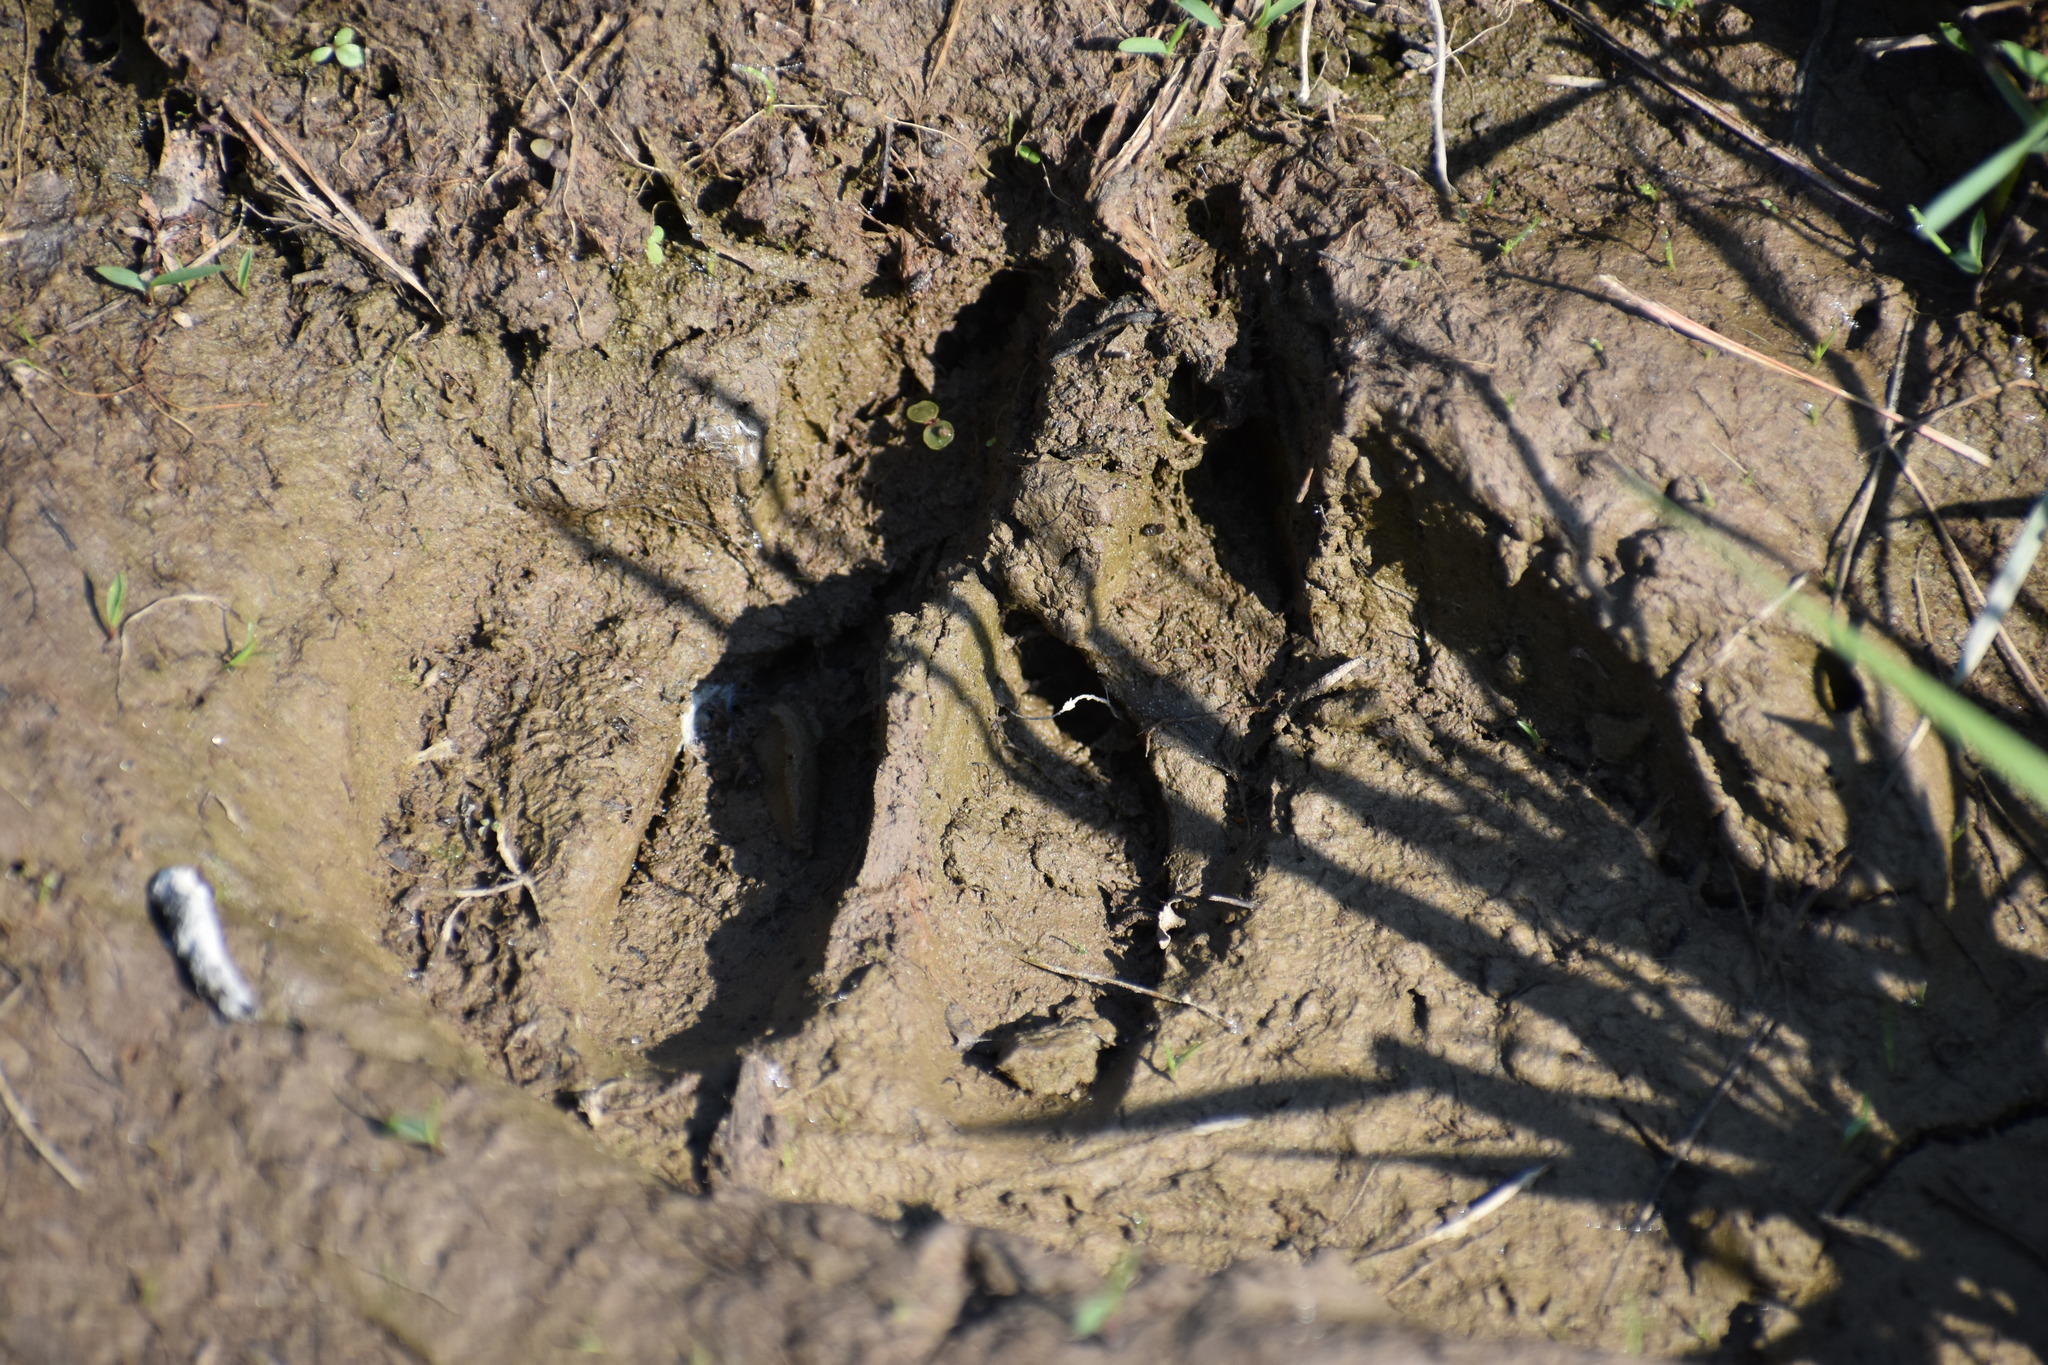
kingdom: Animalia
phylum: Chordata
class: Mammalia
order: Artiodactyla
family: Cervidae
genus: Odocoileus
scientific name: Odocoileus virginianus
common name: White-tailed deer
